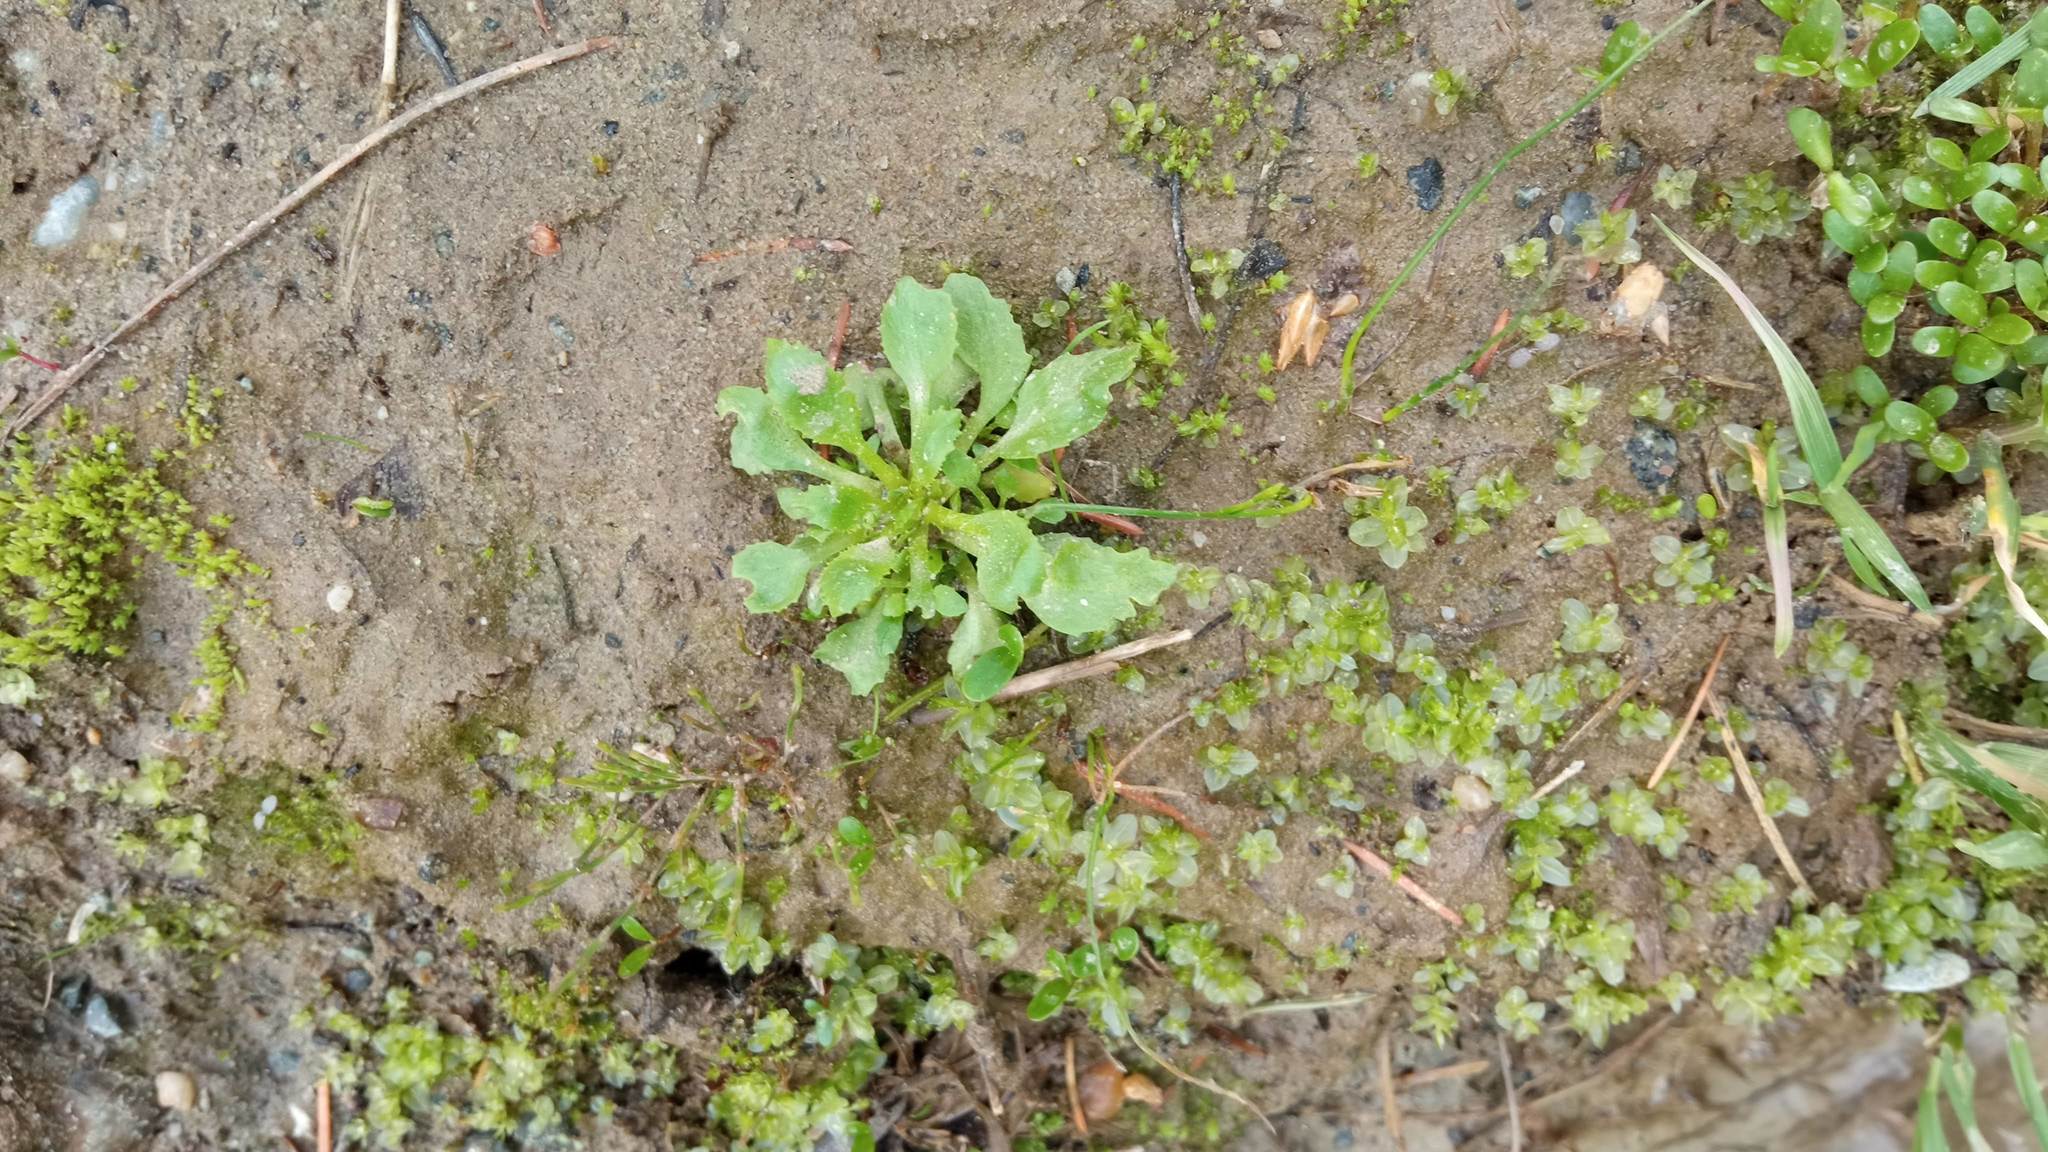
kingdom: Plantae
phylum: Tracheophyta
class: Magnoliopsida
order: Ericales
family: Primulaceae
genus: Androsace
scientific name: Androsace filiformis
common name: Filiform rock jasmine
